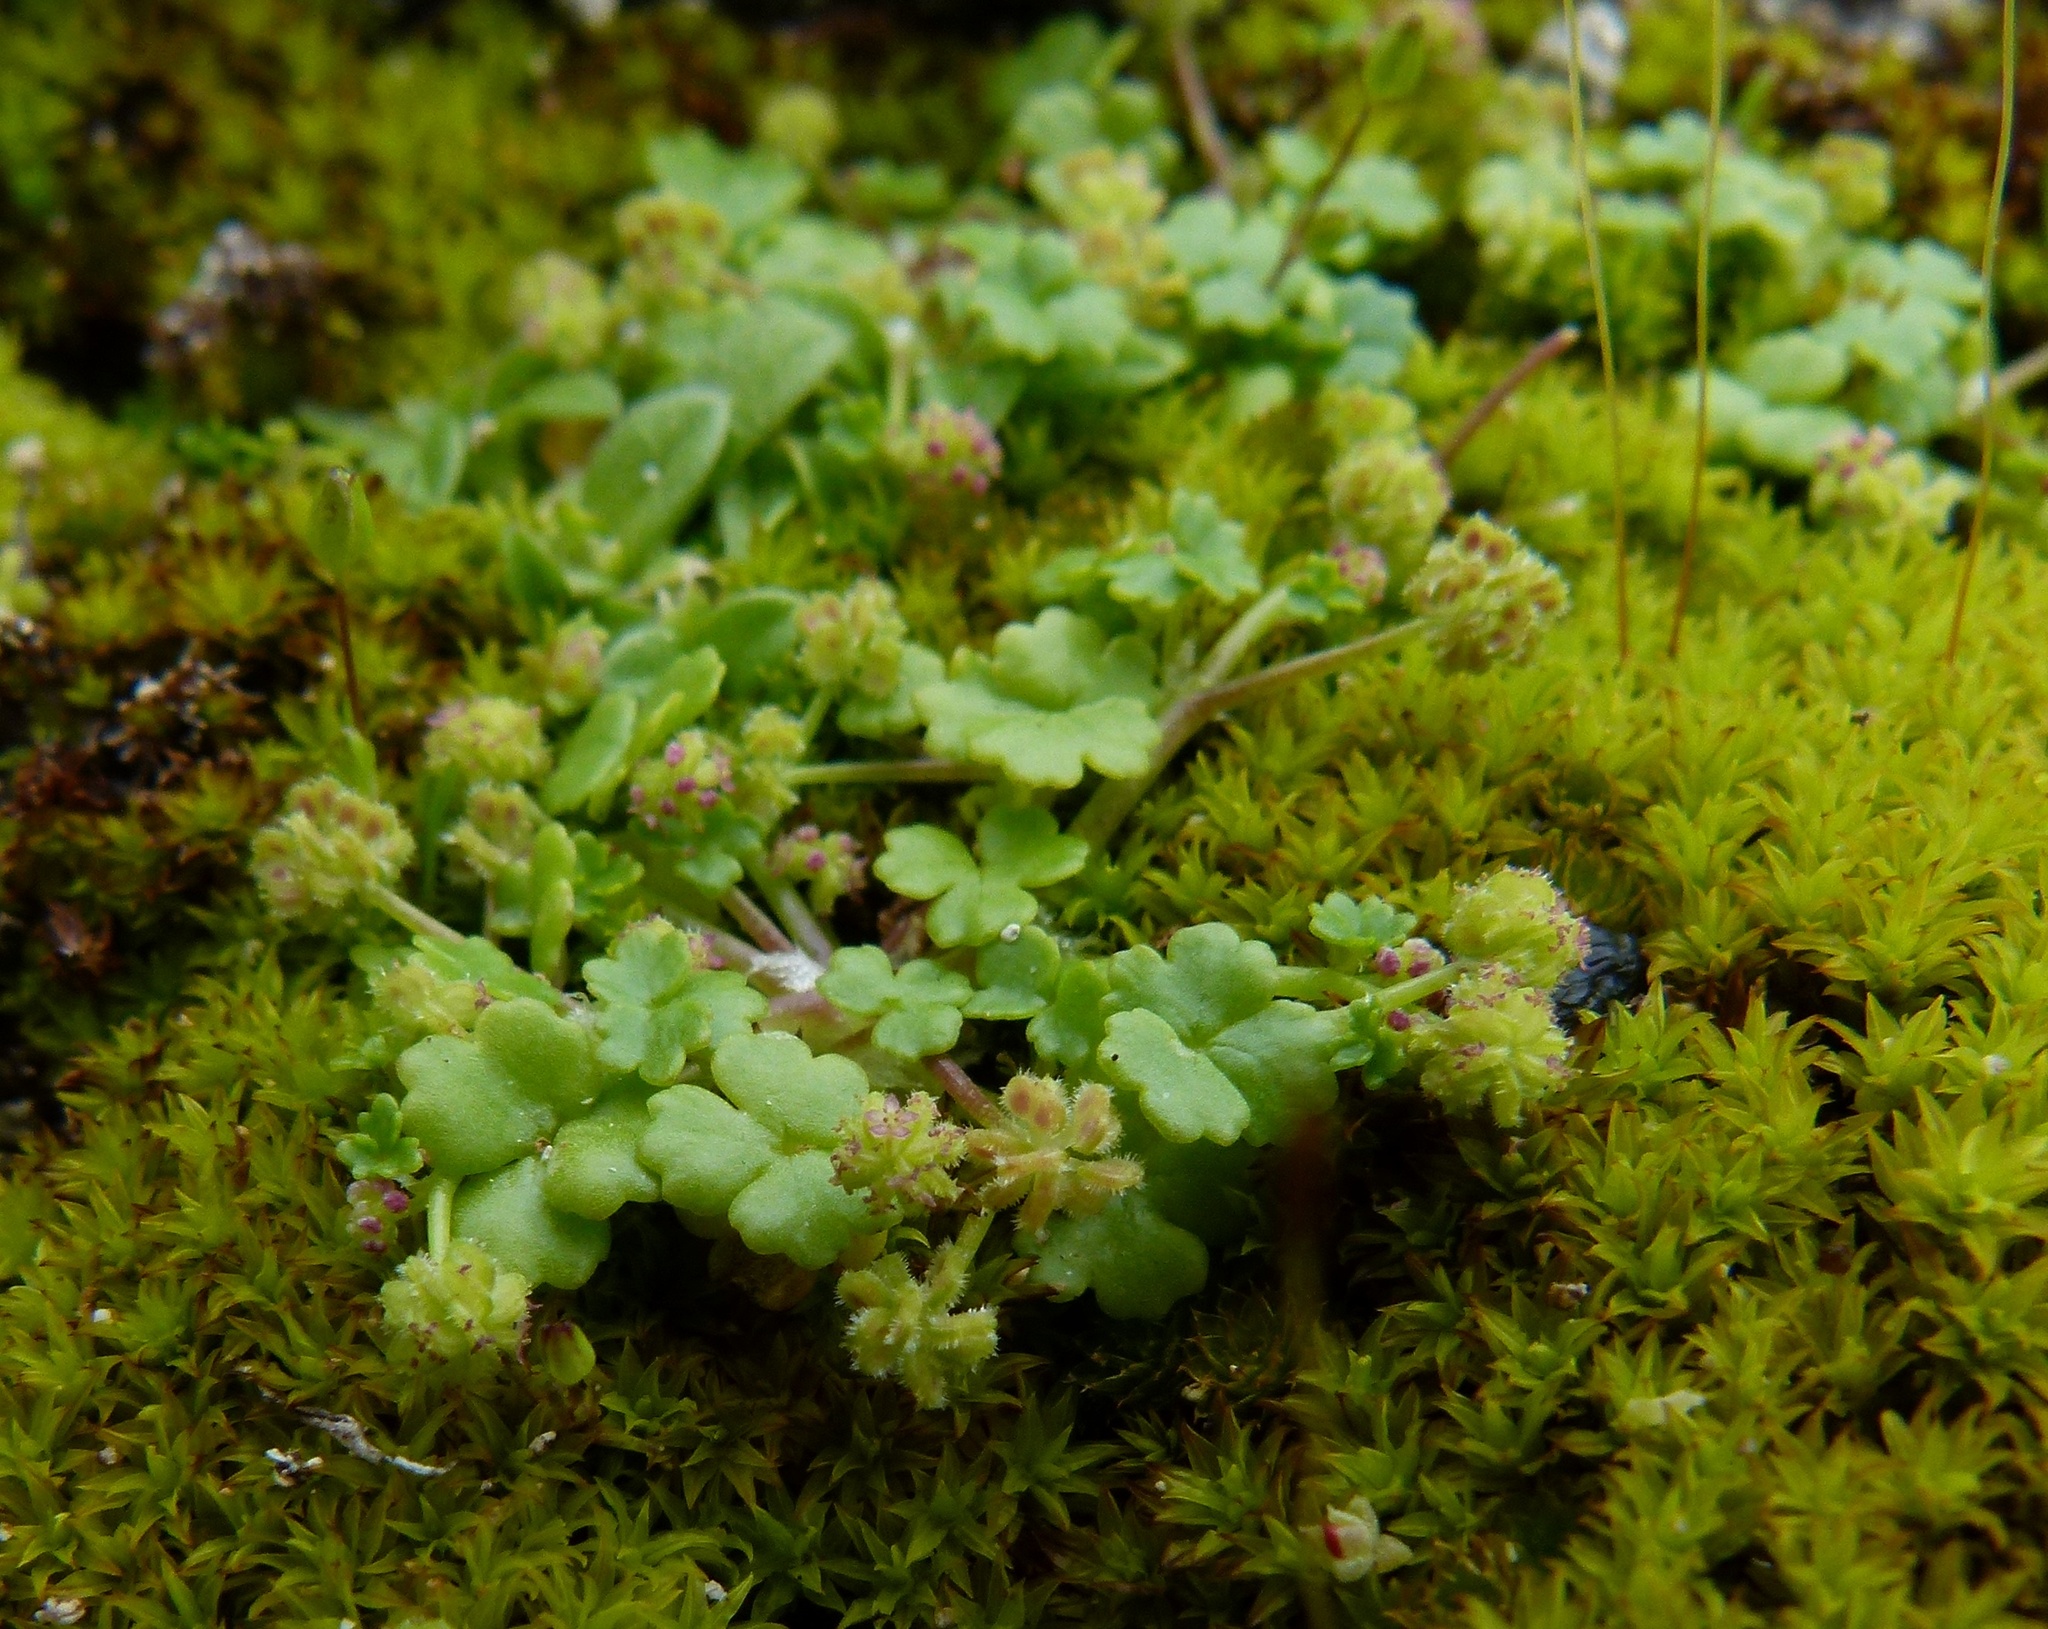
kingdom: Plantae
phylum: Tracheophyta
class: Magnoliopsida
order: Apiales
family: Araliaceae
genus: Hydrocotyle
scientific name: Hydrocotyle scutellifera
